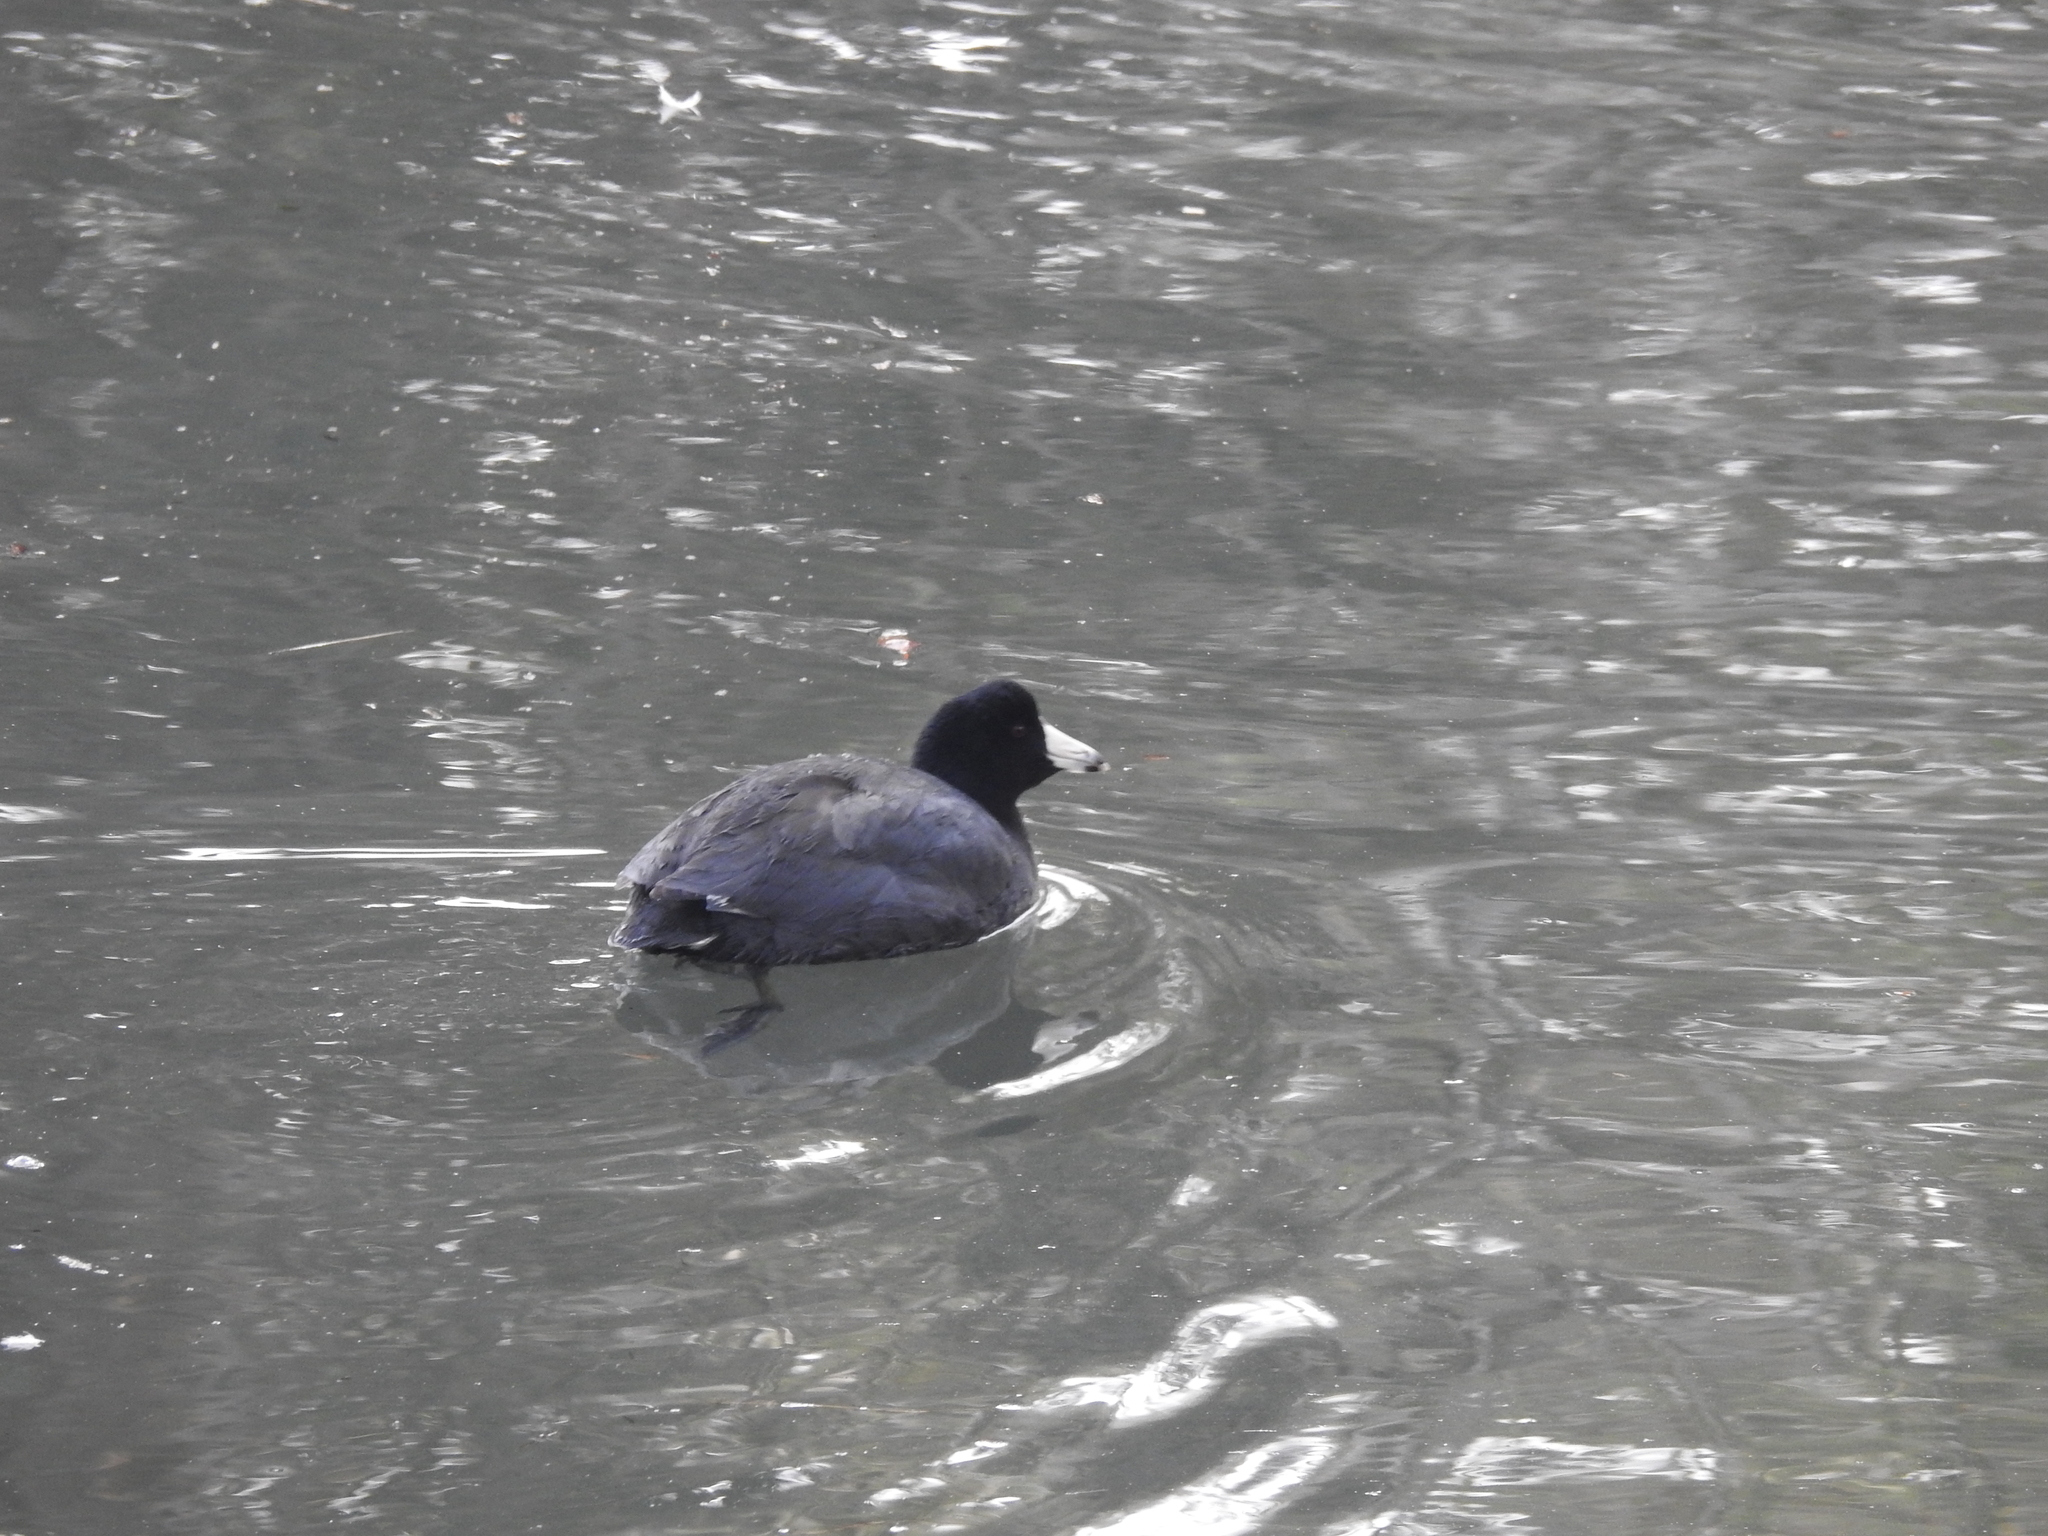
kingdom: Animalia
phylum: Chordata
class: Aves
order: Gruiformes
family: Rallidae
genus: Fulica
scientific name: Fulica americana
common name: American coot
